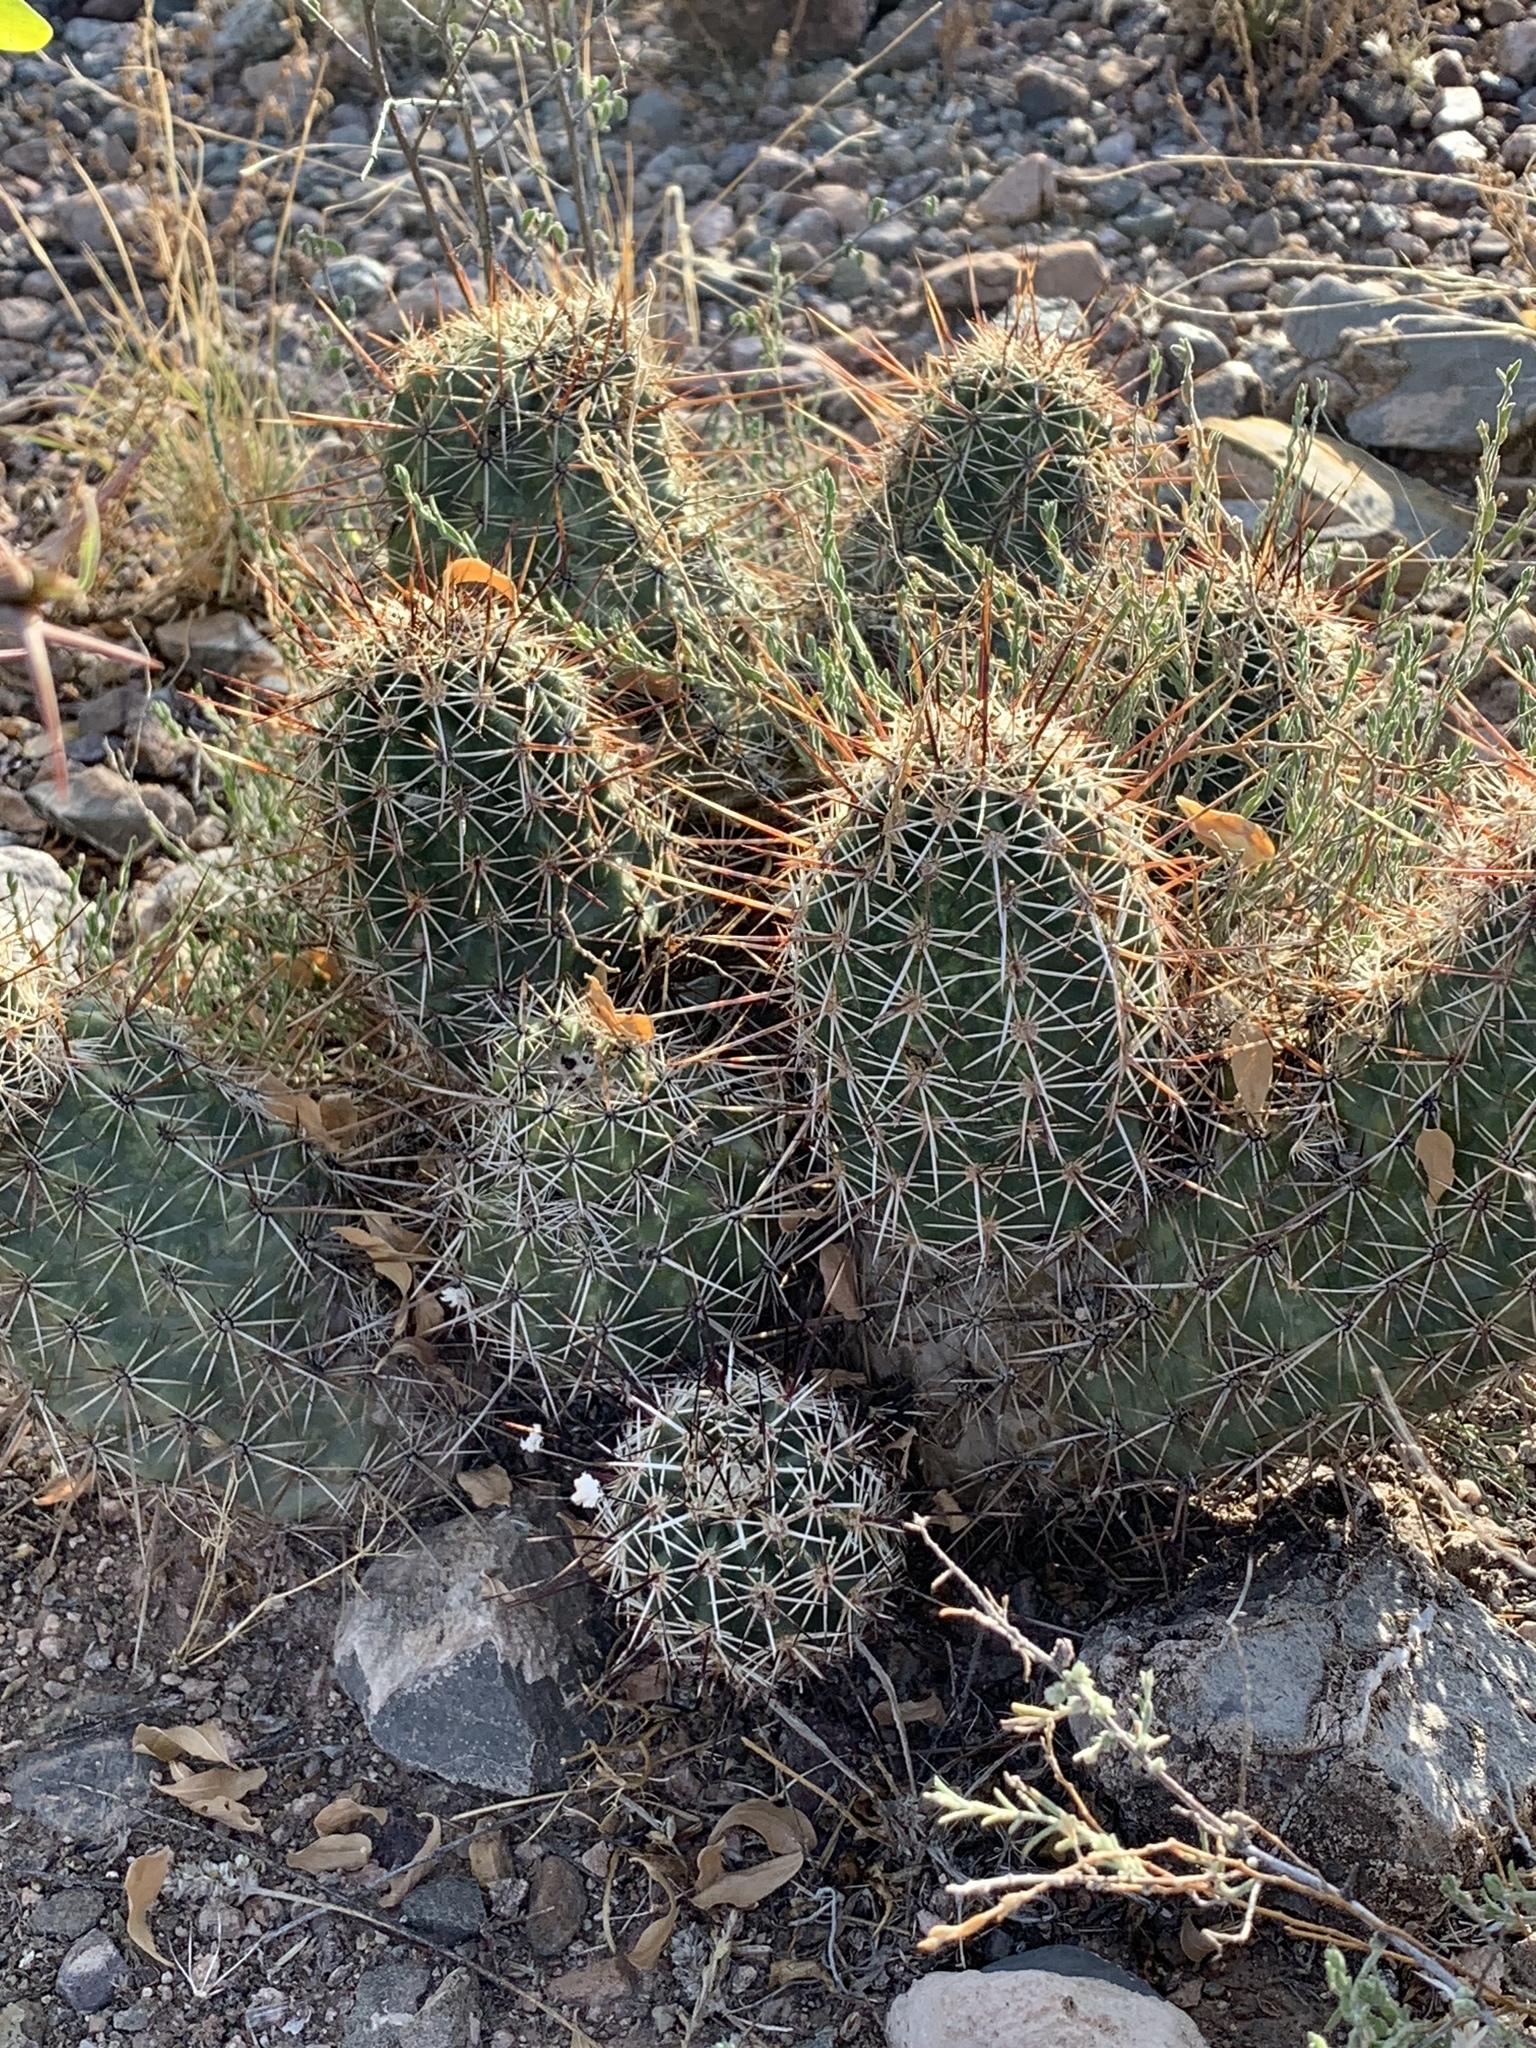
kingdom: Plantae
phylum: Tracheophyta
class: Magnoliopsida
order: Caryophyllales
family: Cactaceae
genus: Echinocereus
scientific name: Echinocereus fasciculatus
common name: Bundle hedgehog
